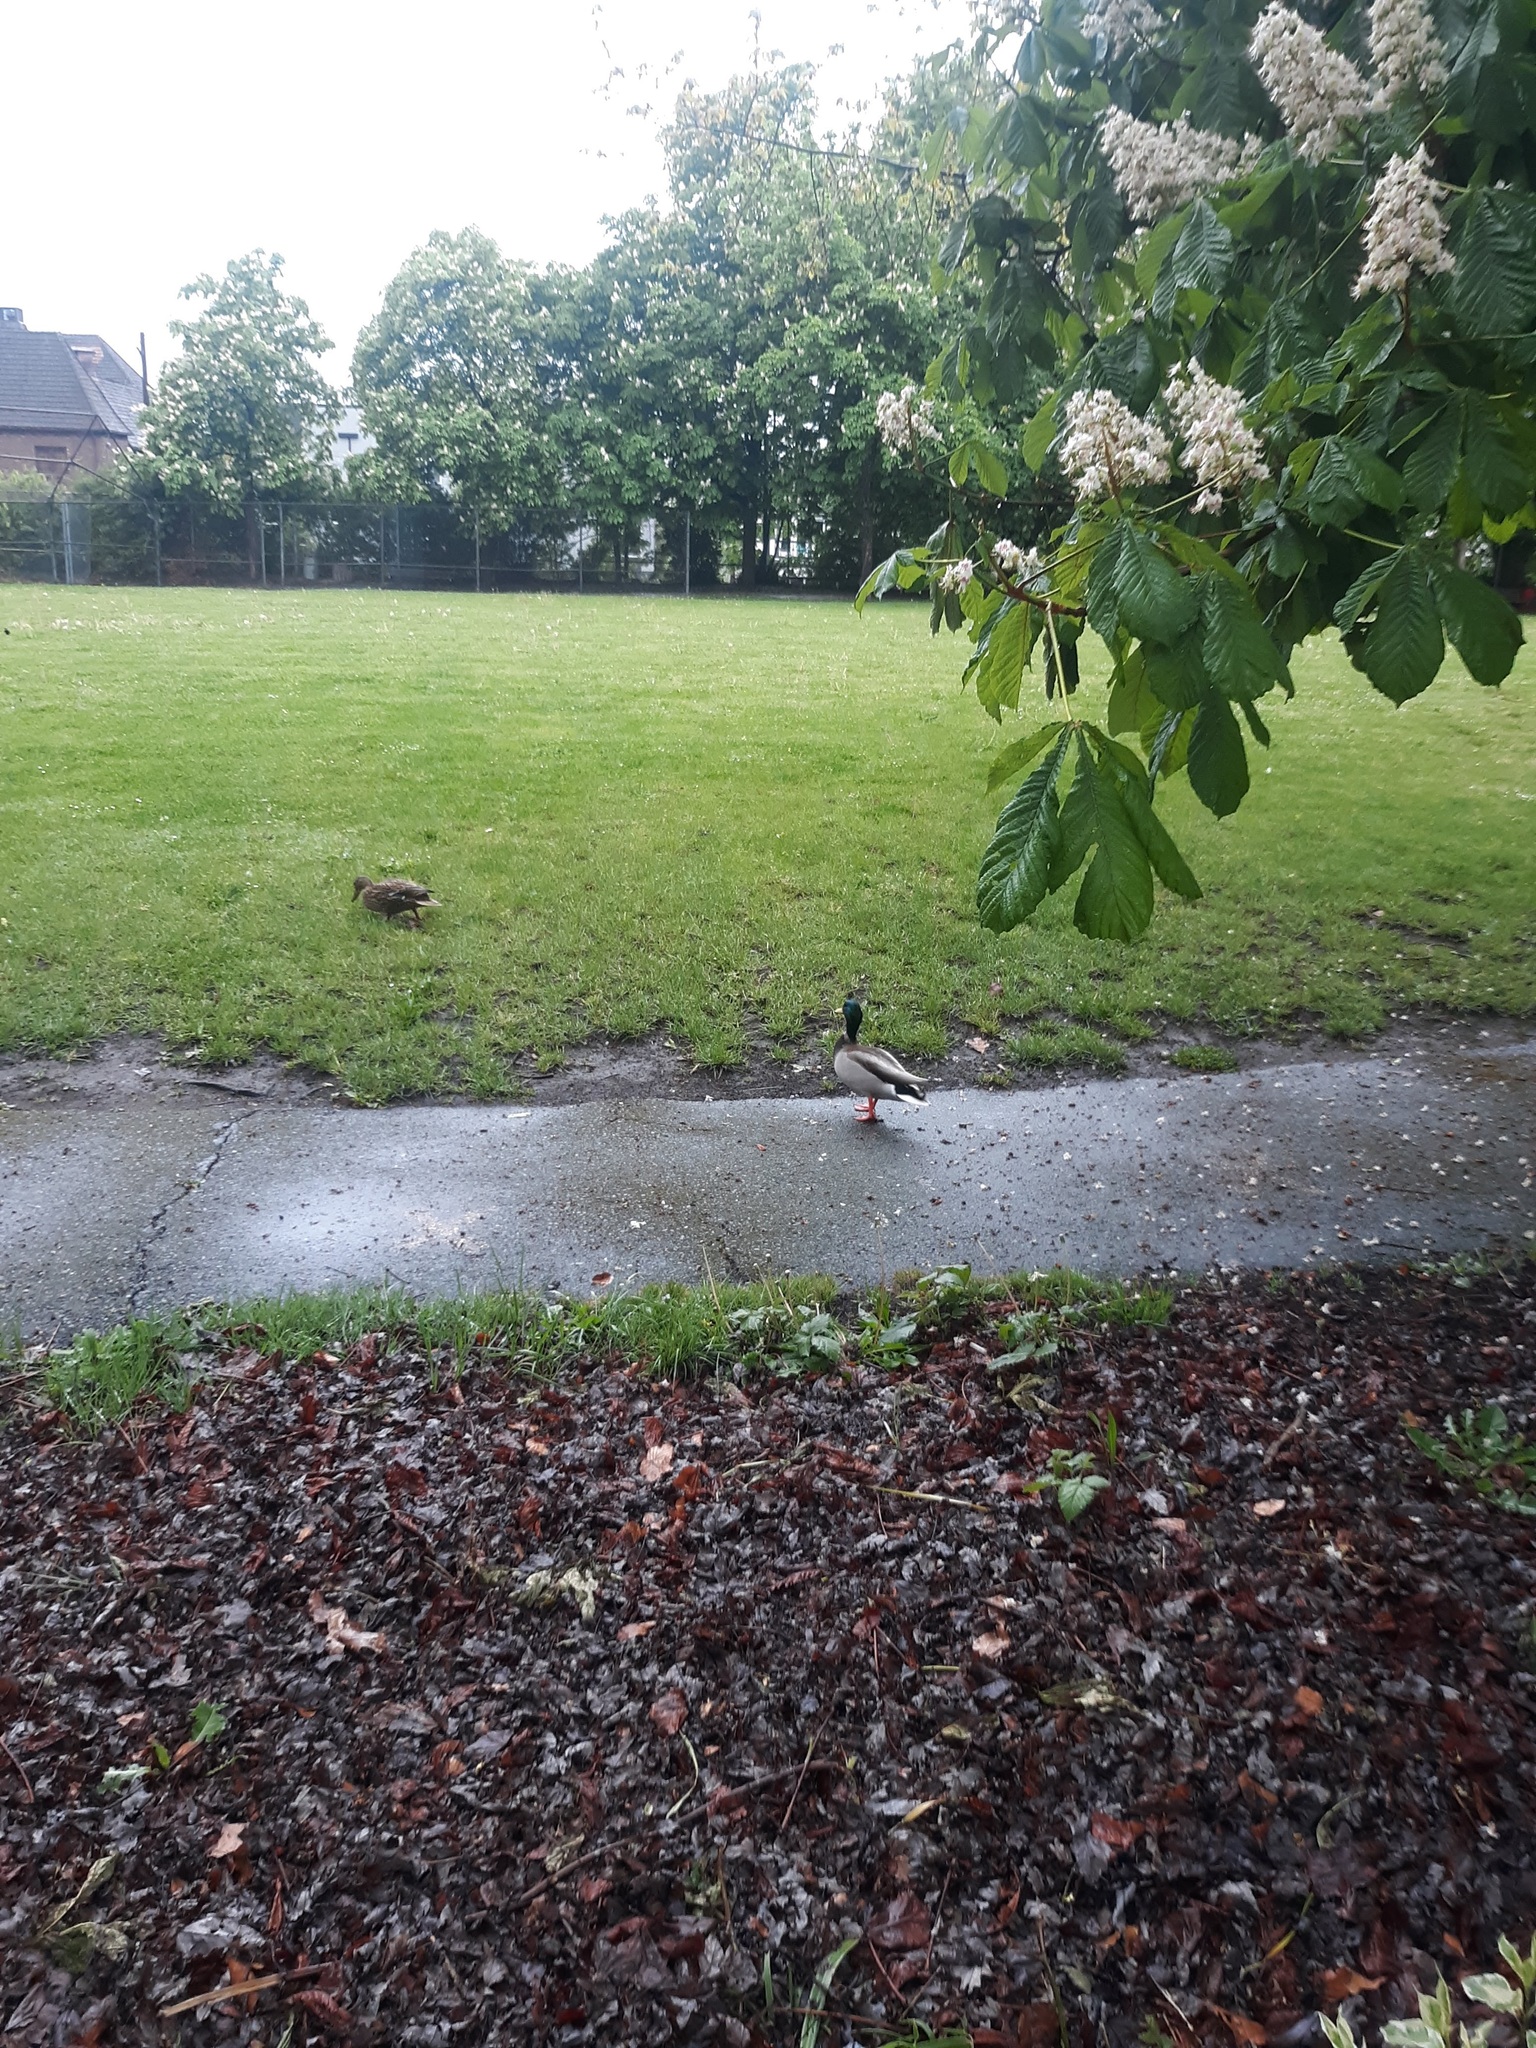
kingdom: Animalia
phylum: Chordata
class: Aves
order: Anseriformes
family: Anatidae
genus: Anas
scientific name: Anas platyrhynchos
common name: Mallard
